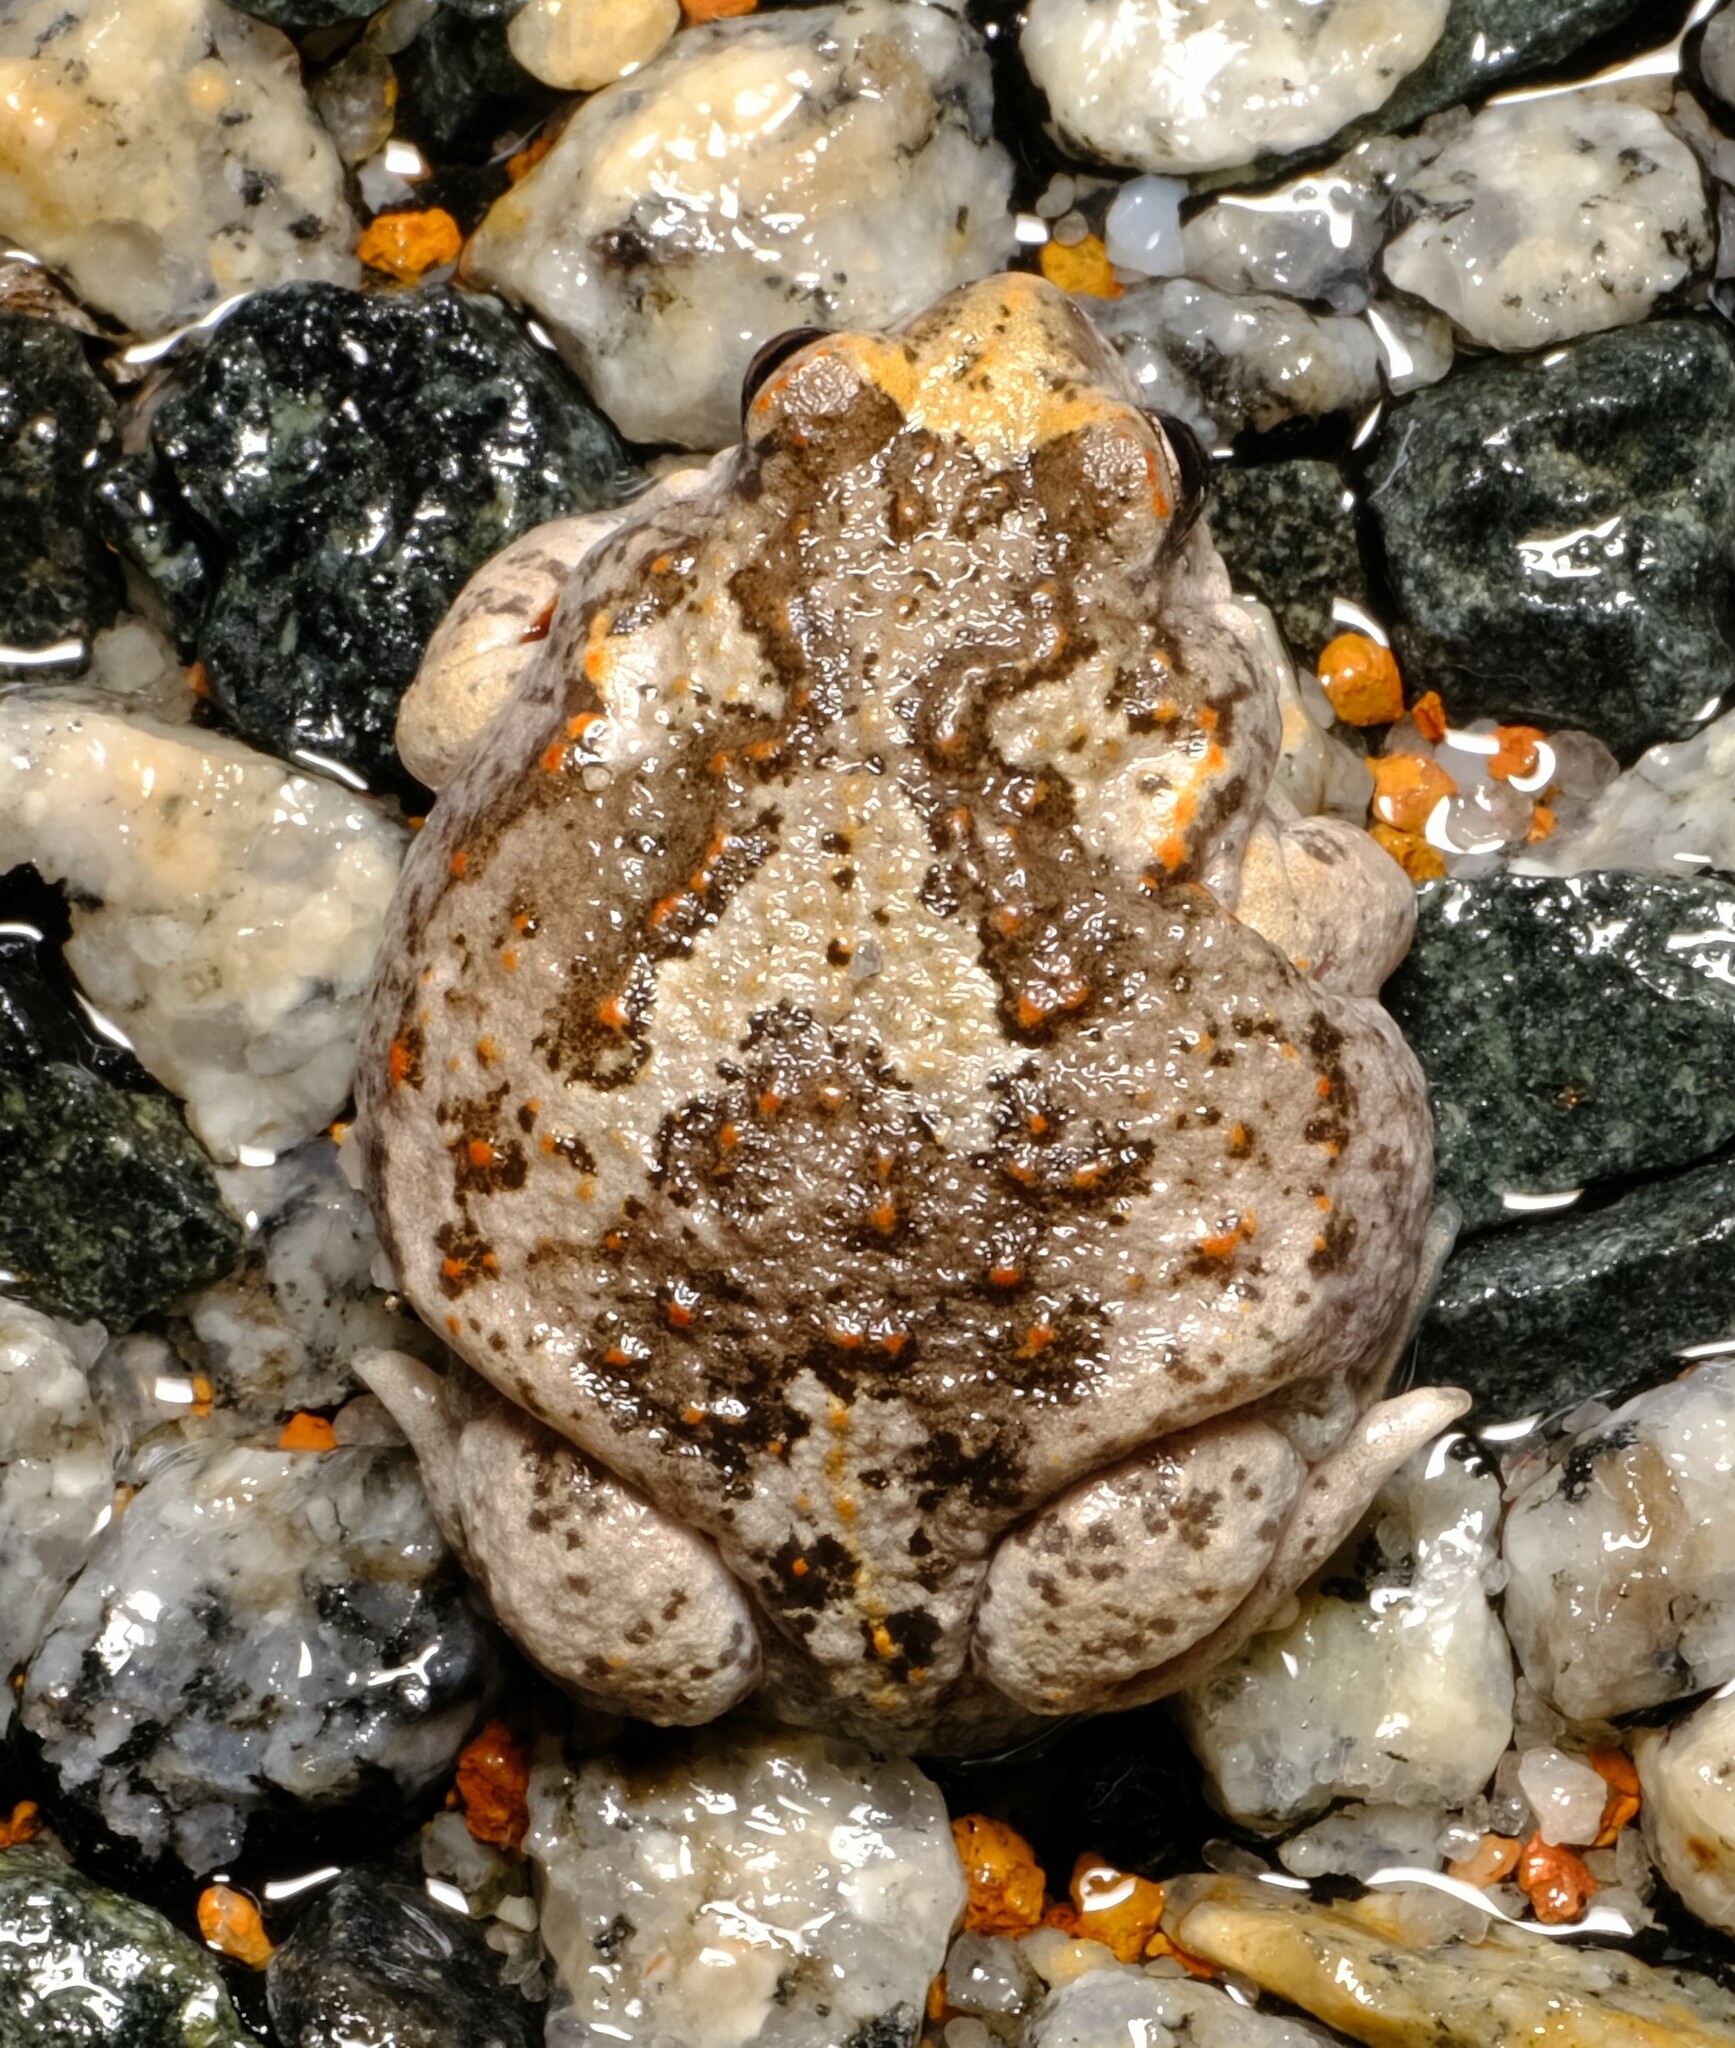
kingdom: Animalia
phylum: Chordata
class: Amphibia
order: Anura
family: Myobatrachidae
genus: Pseudophryne
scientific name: Pseudophryne guentheri
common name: Günther’s toadlet
